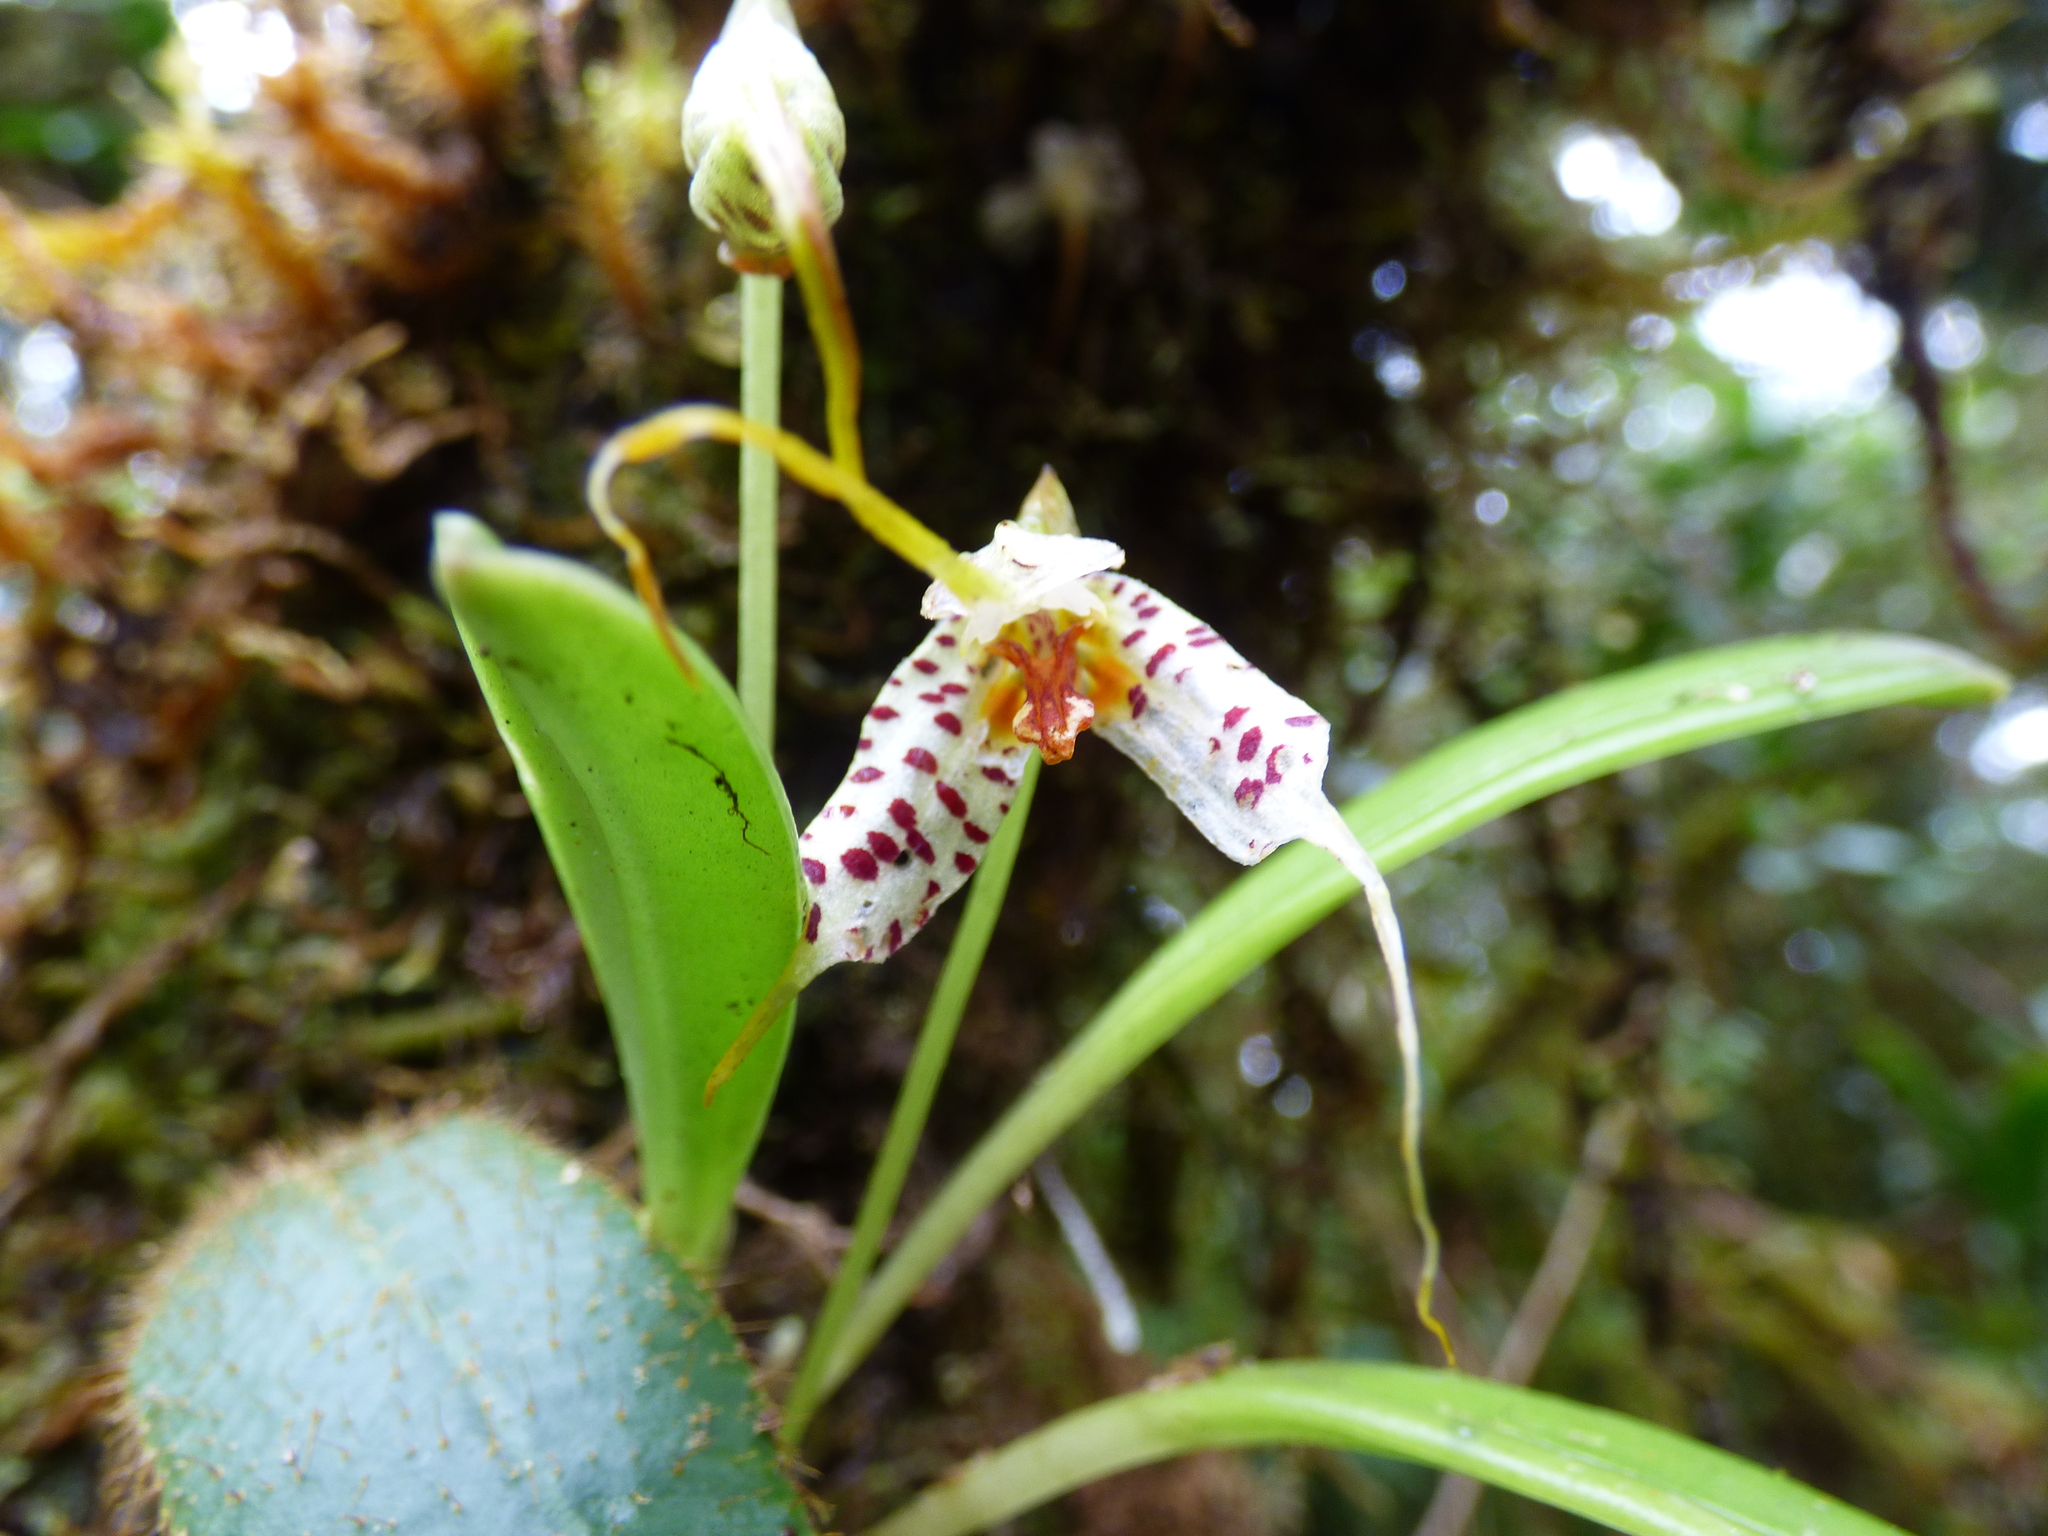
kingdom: Plantae
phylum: Tracheophyta
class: Liliopsida
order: Asparagales
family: Orchidaceae
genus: Masdevallia
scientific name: Masdevallia picturata
